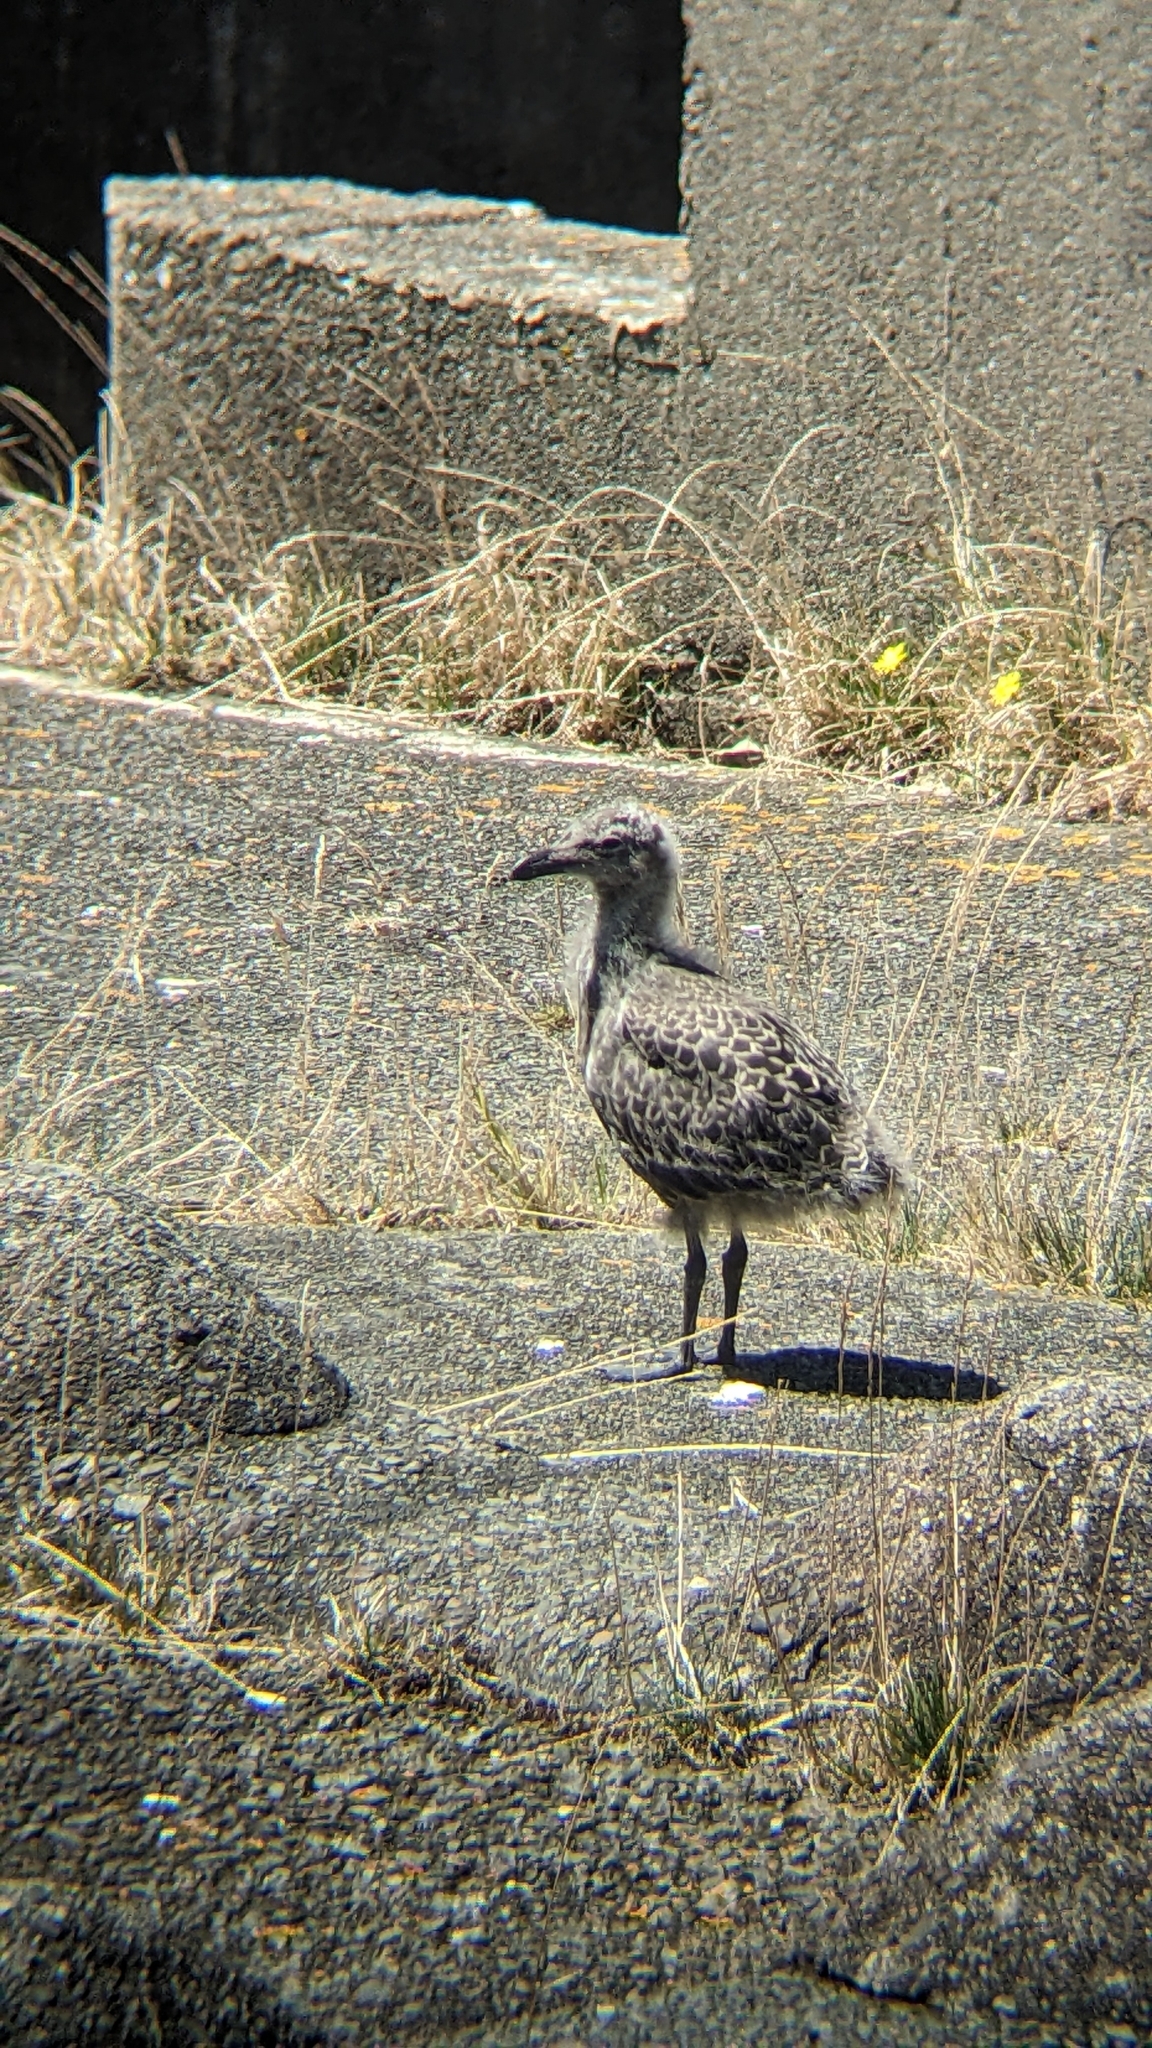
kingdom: Animalia
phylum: Chordata
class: Aves
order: Charadriiformes
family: Laridae
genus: Larus
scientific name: Larus dominicanus
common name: Kelp gull
